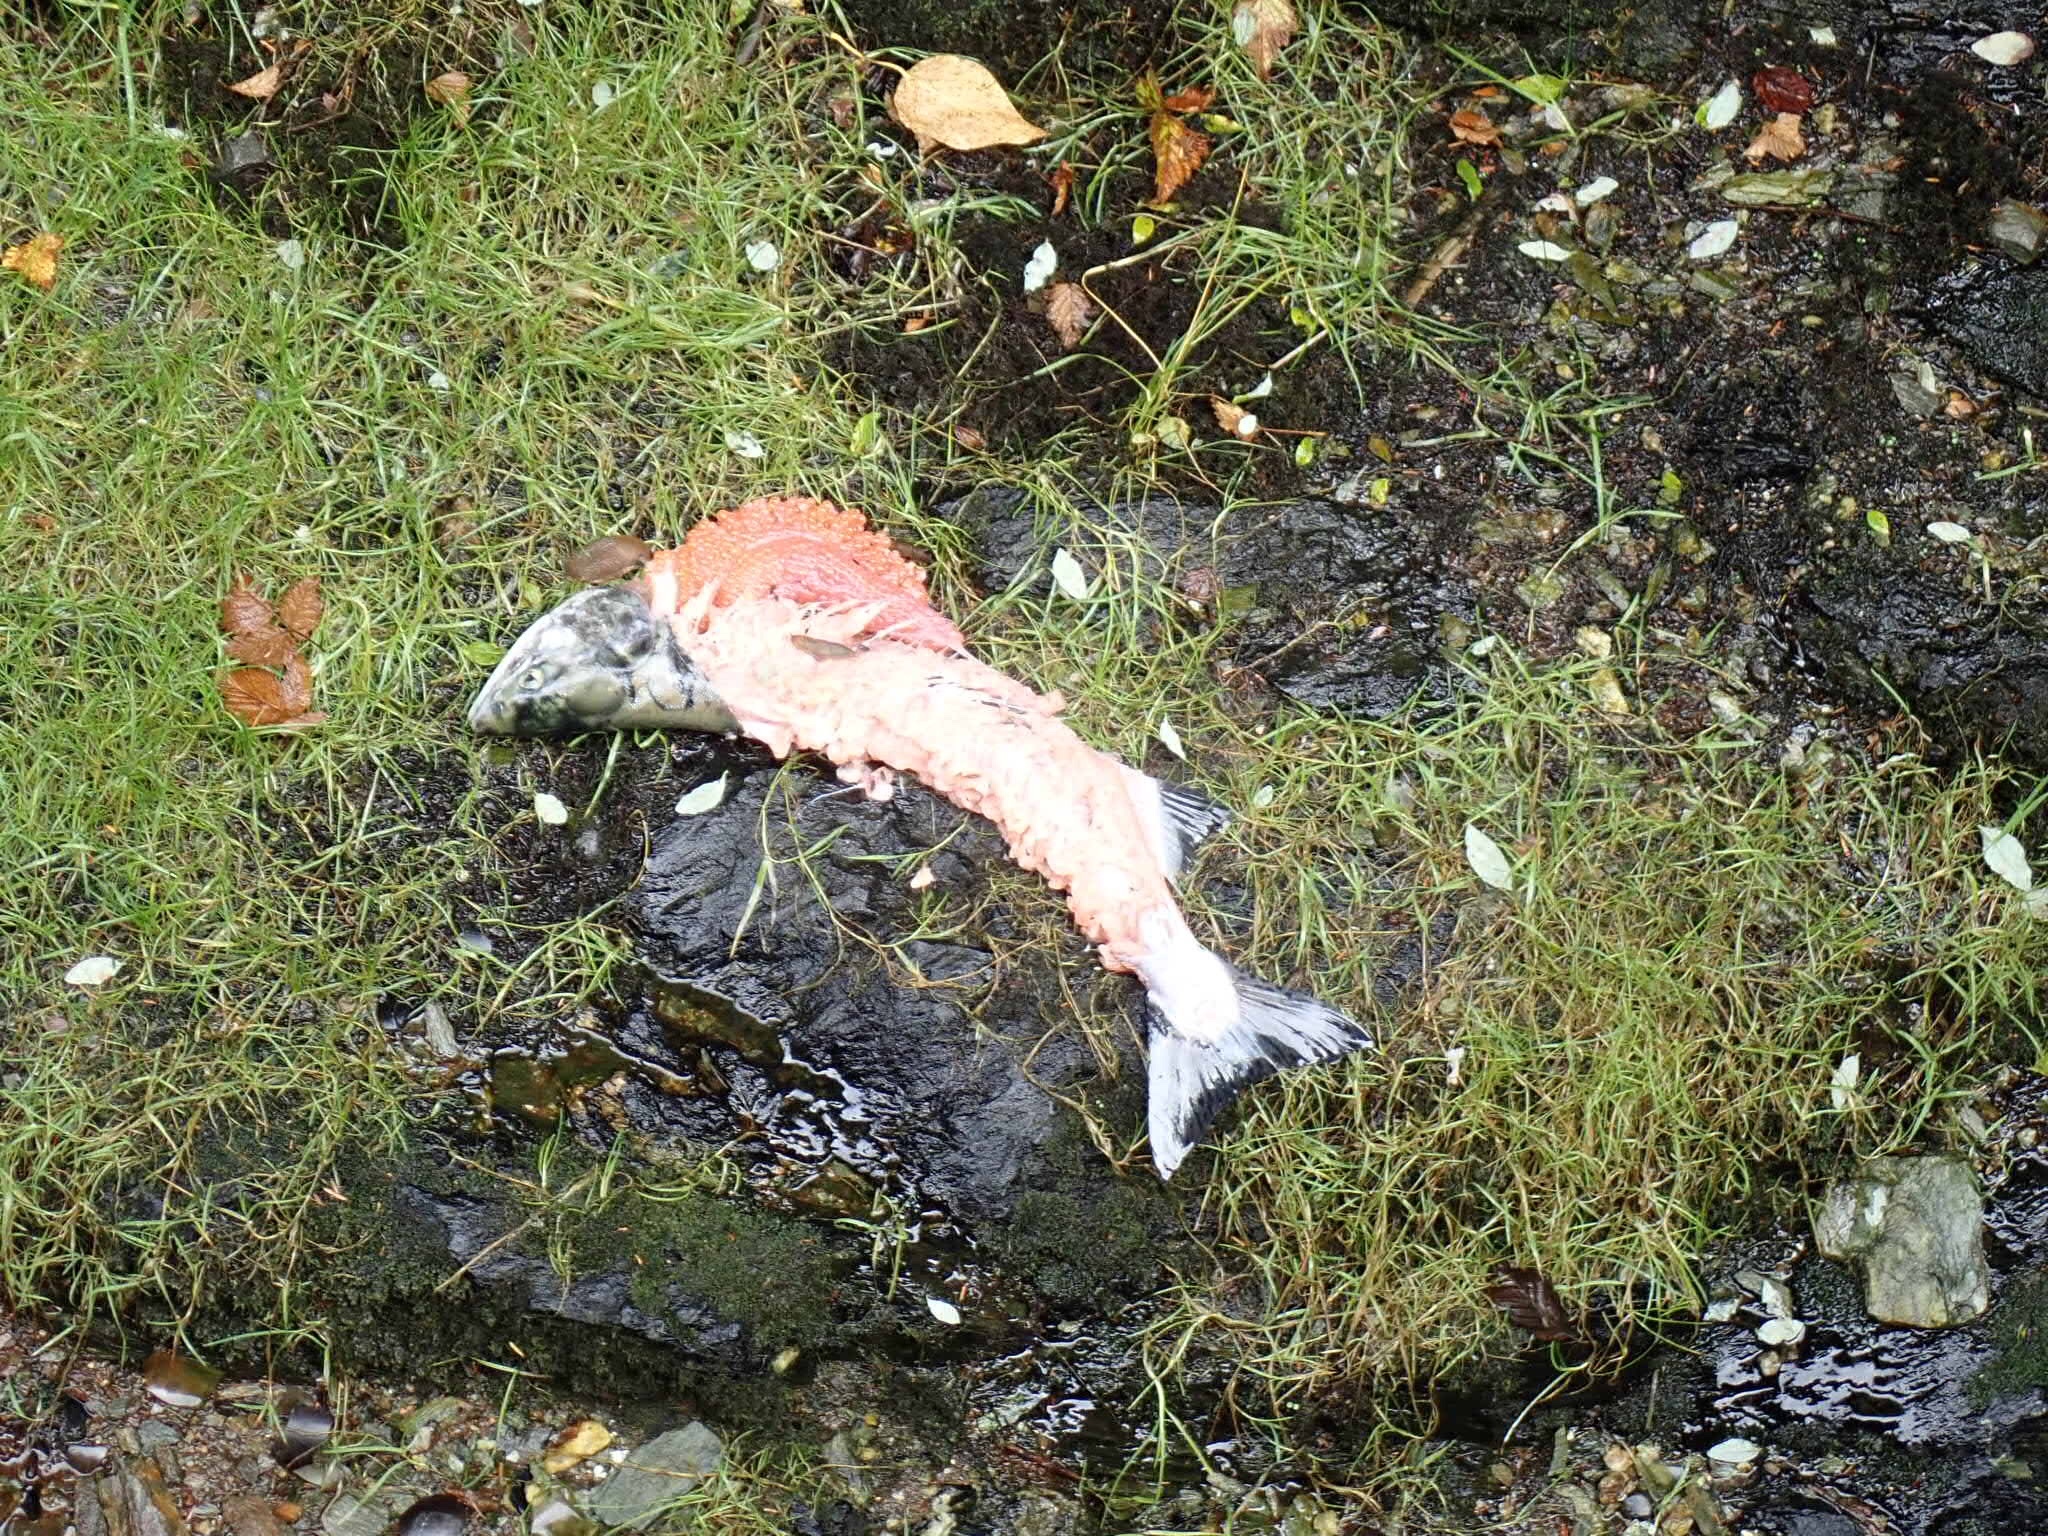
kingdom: Animalia
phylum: Chordata
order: Salmoniformes
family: Salmonidae
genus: Oncorhynchus
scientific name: Oncorhynchus gorbuscha
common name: Humpback salmon
